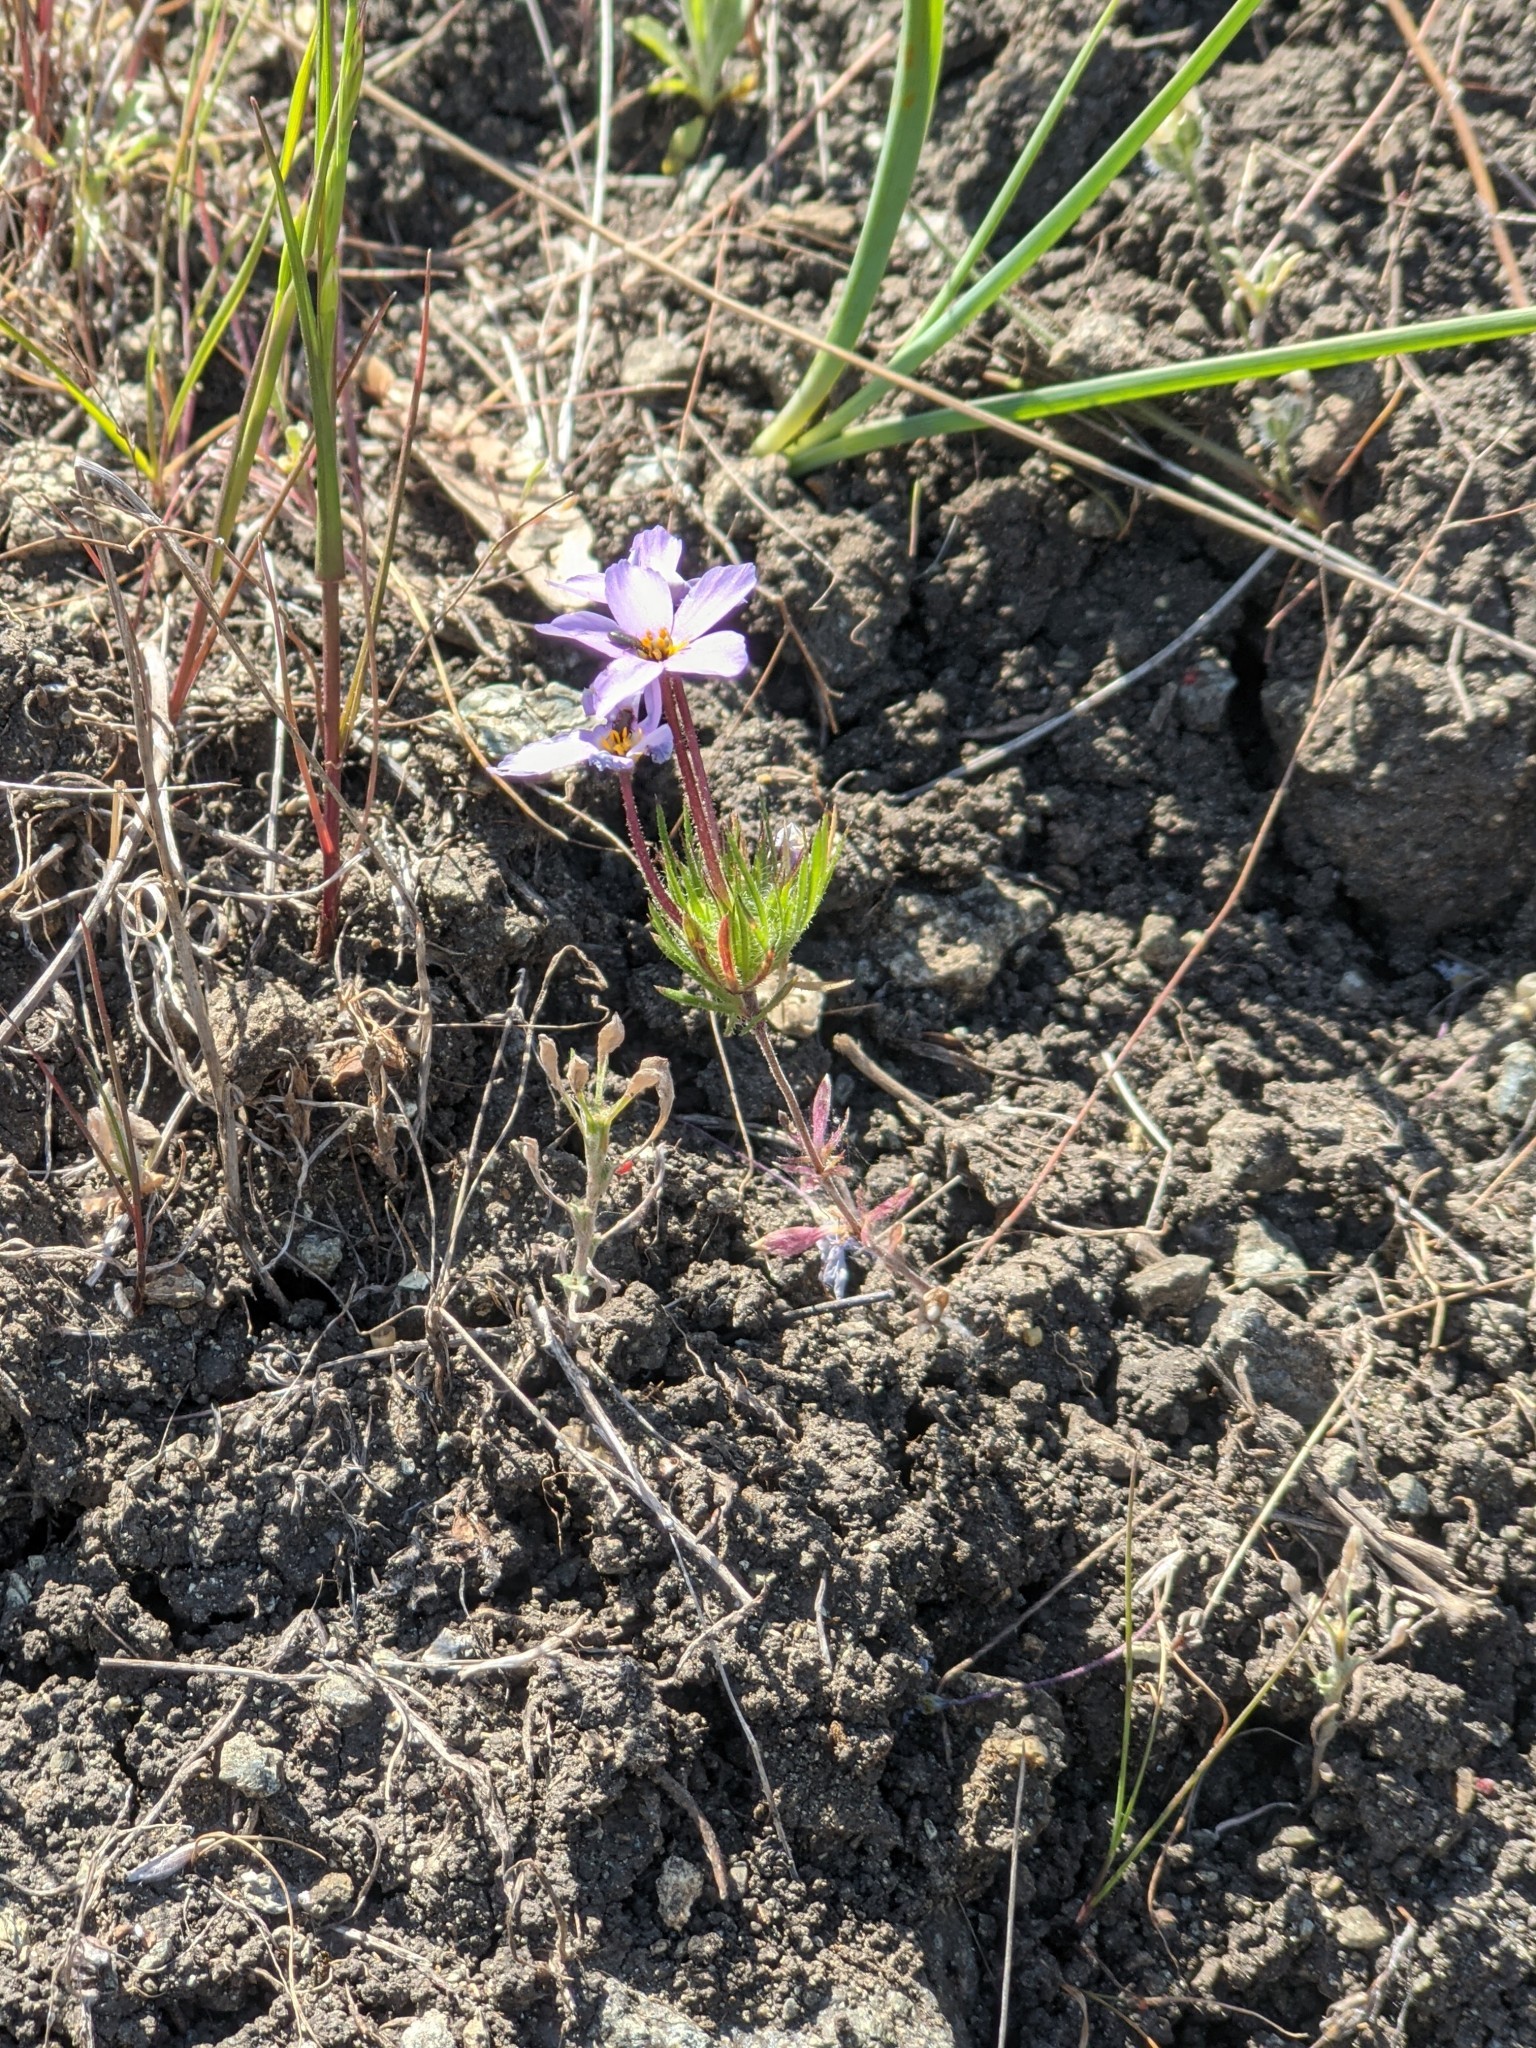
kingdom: Plantae
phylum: Tracheophyta
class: Magnoliopsida
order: Ericales
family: Polemoniaceae
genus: Leptosiphon
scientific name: Leptosiphon androsaceus
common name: False babystars
